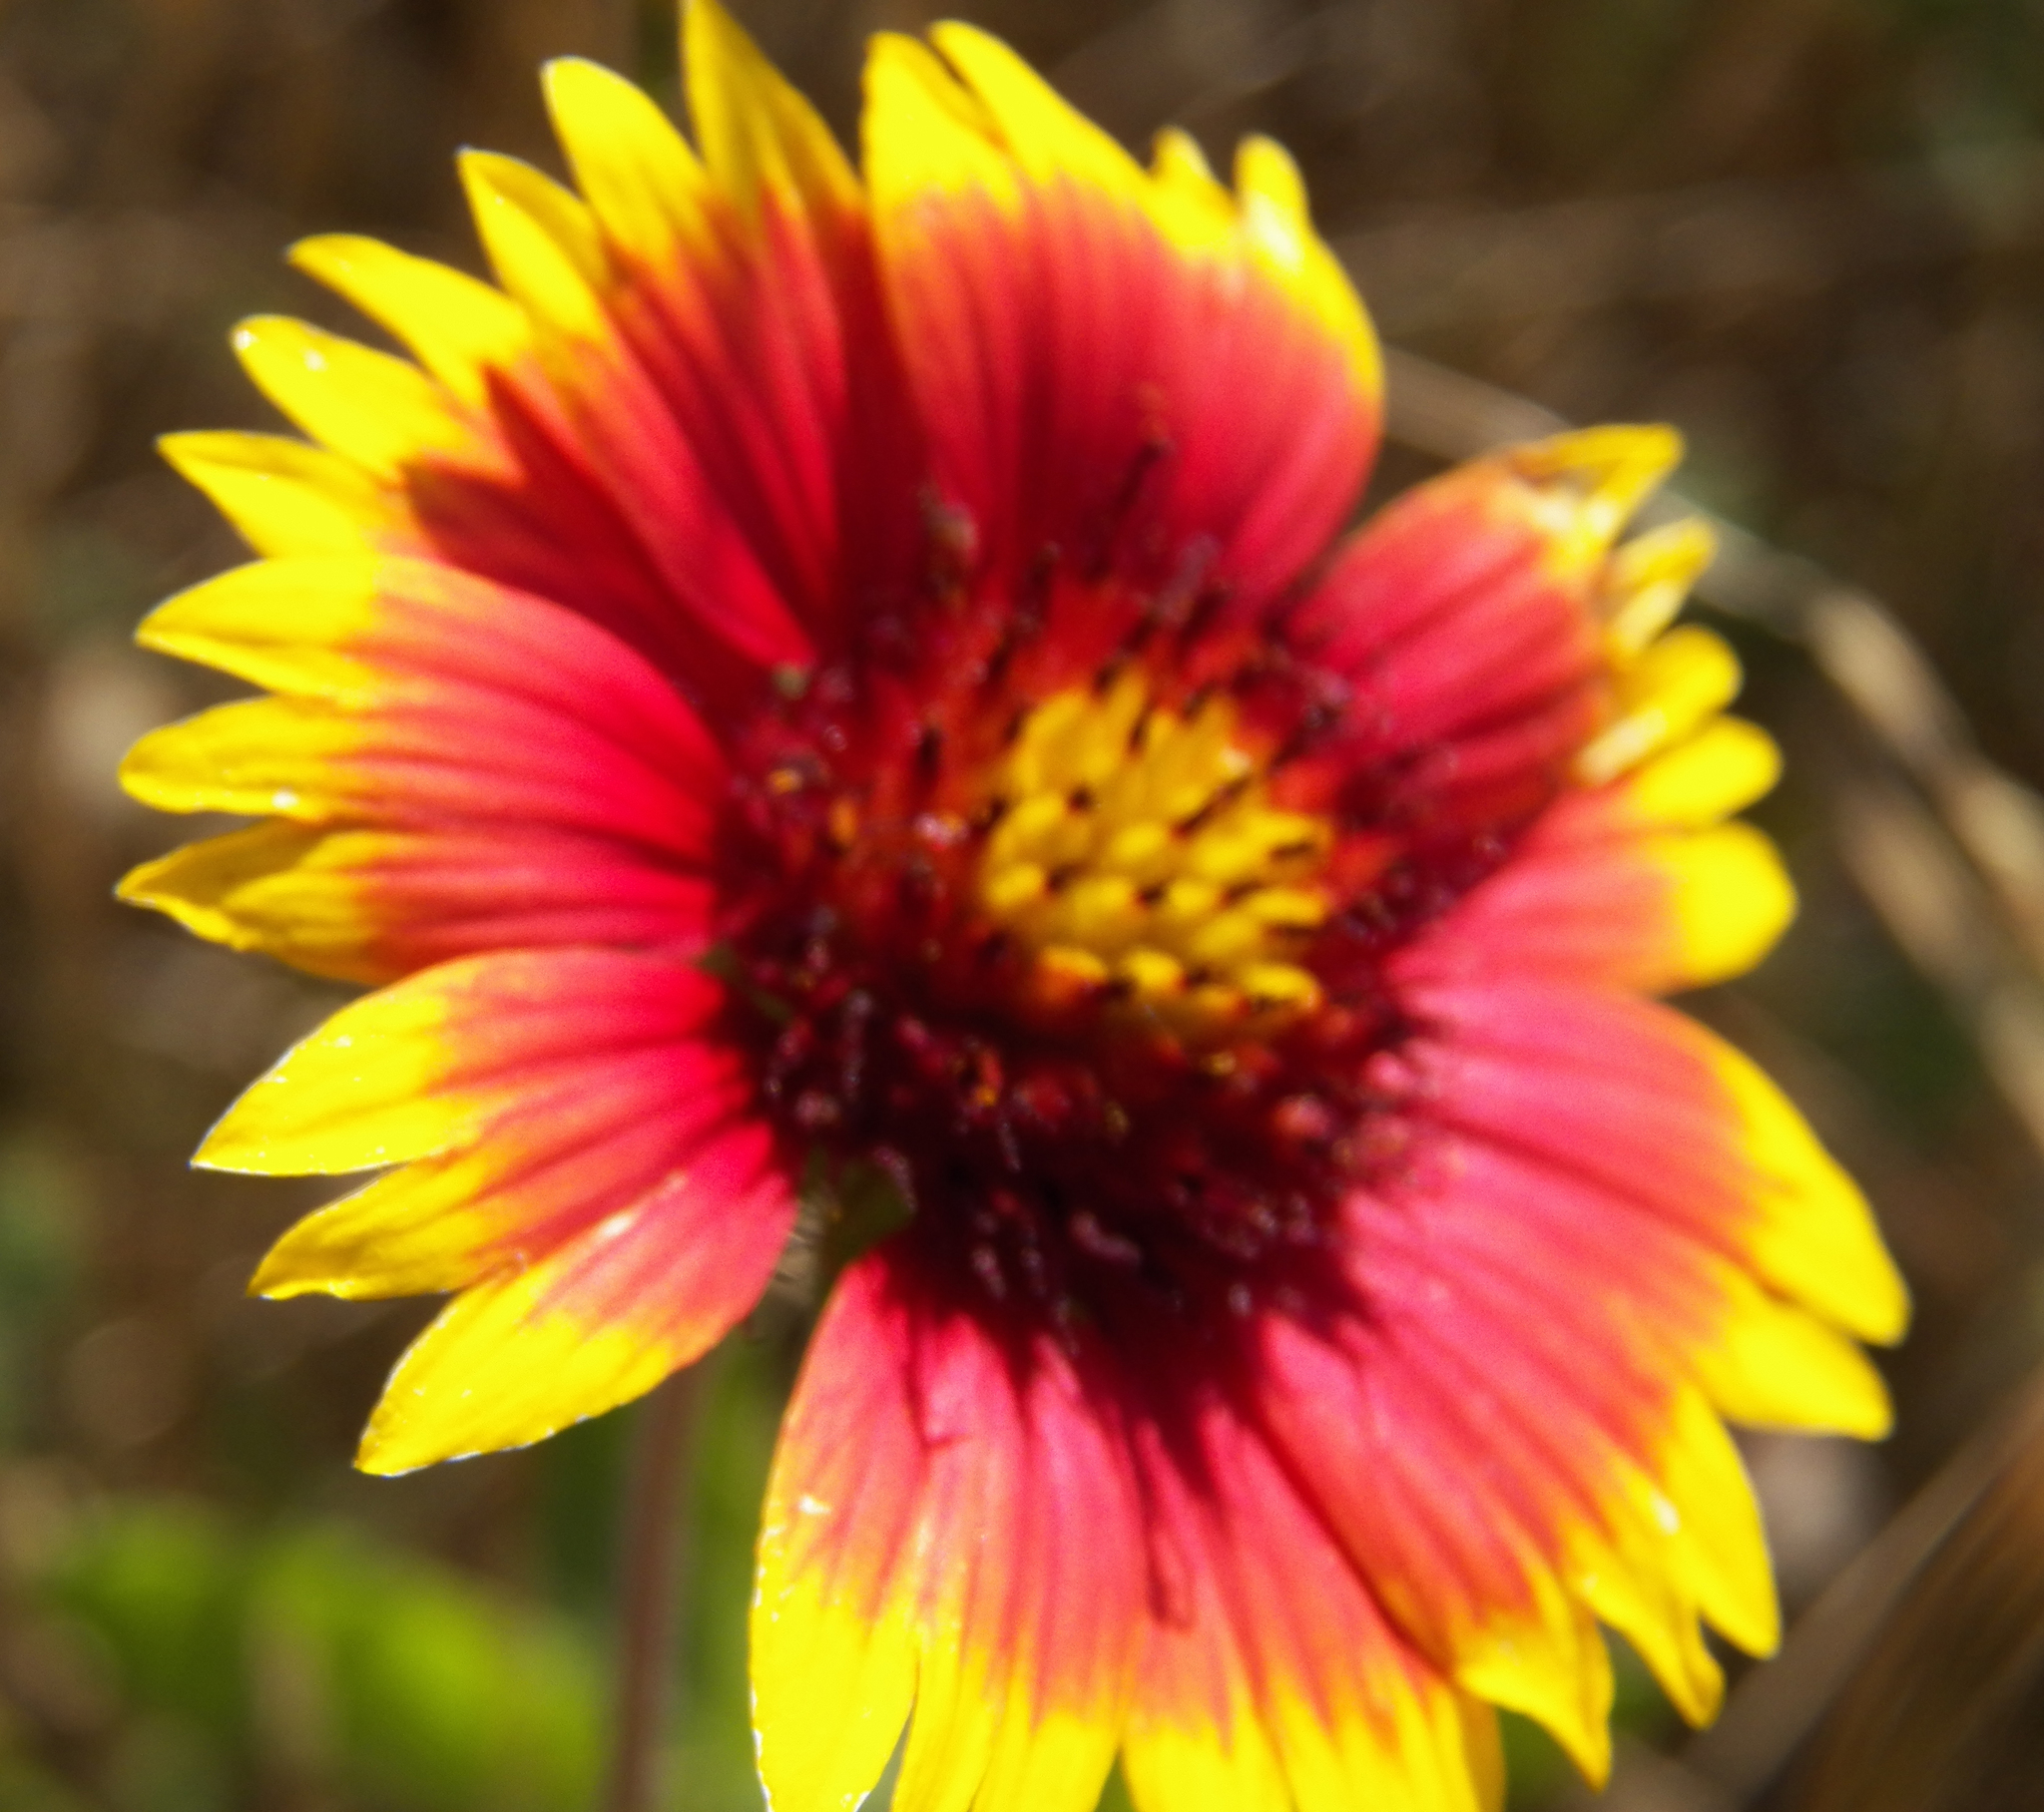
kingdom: Plantae
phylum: Tracheophyta
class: Magnoliopsida
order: Asterales
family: Asteraceae
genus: Gaillardia
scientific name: Gaillardia pulchella
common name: Firewheel
